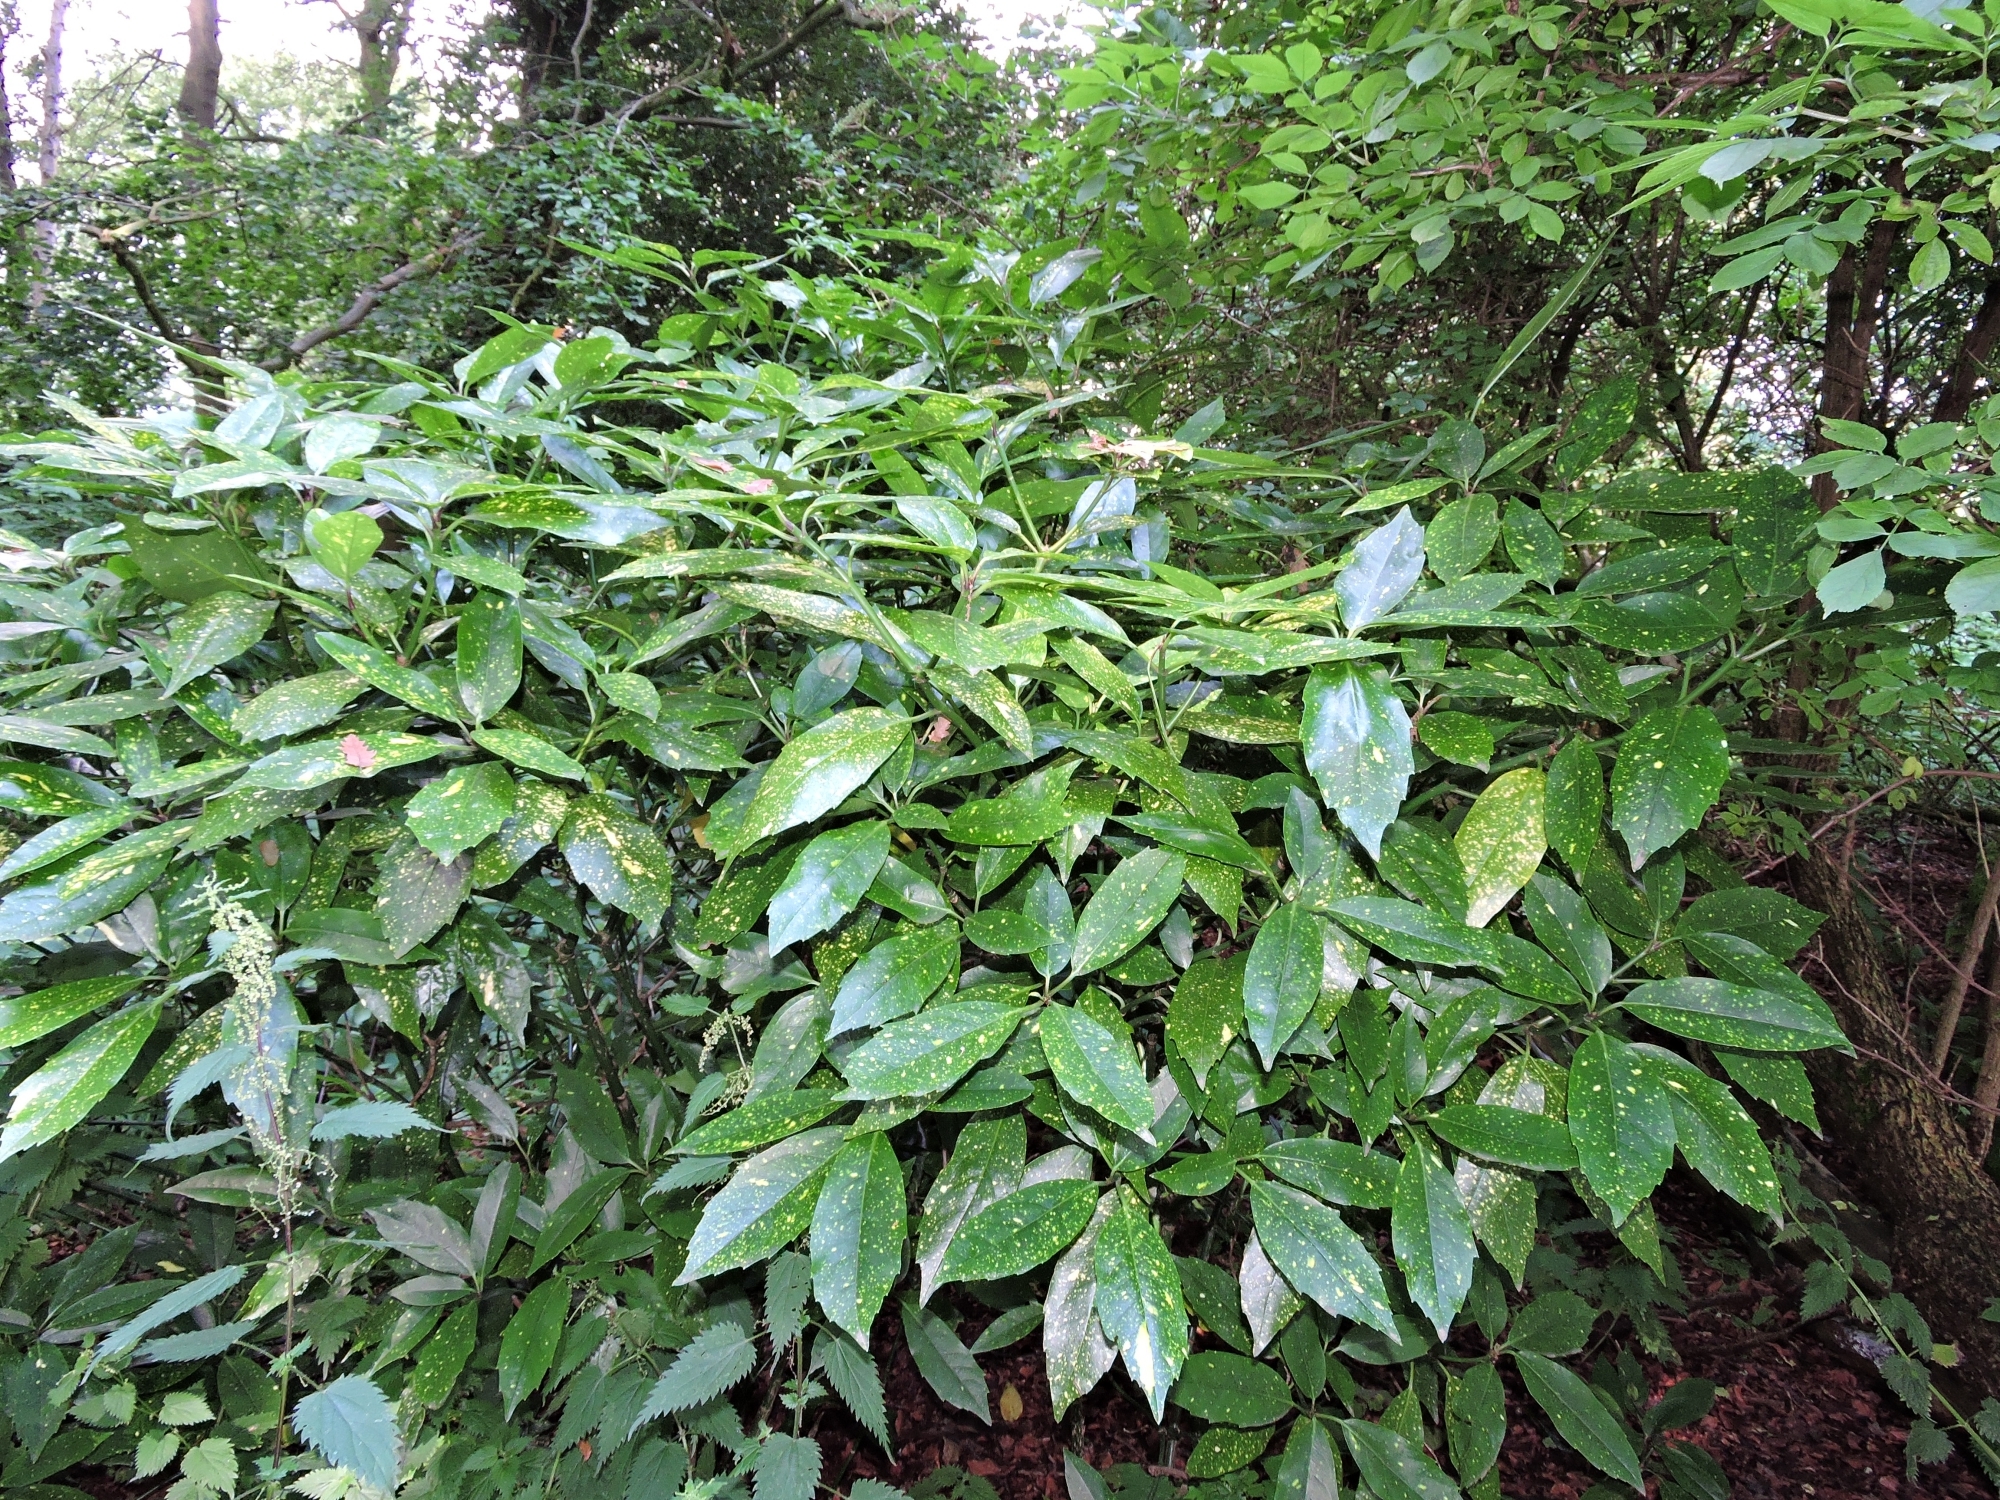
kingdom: Plantae
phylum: Tracheophyta
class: Magnoliopsida
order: Garryales
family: Garryaceae
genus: Aucuba
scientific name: Aucuba japonica
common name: Spotted-laurel
